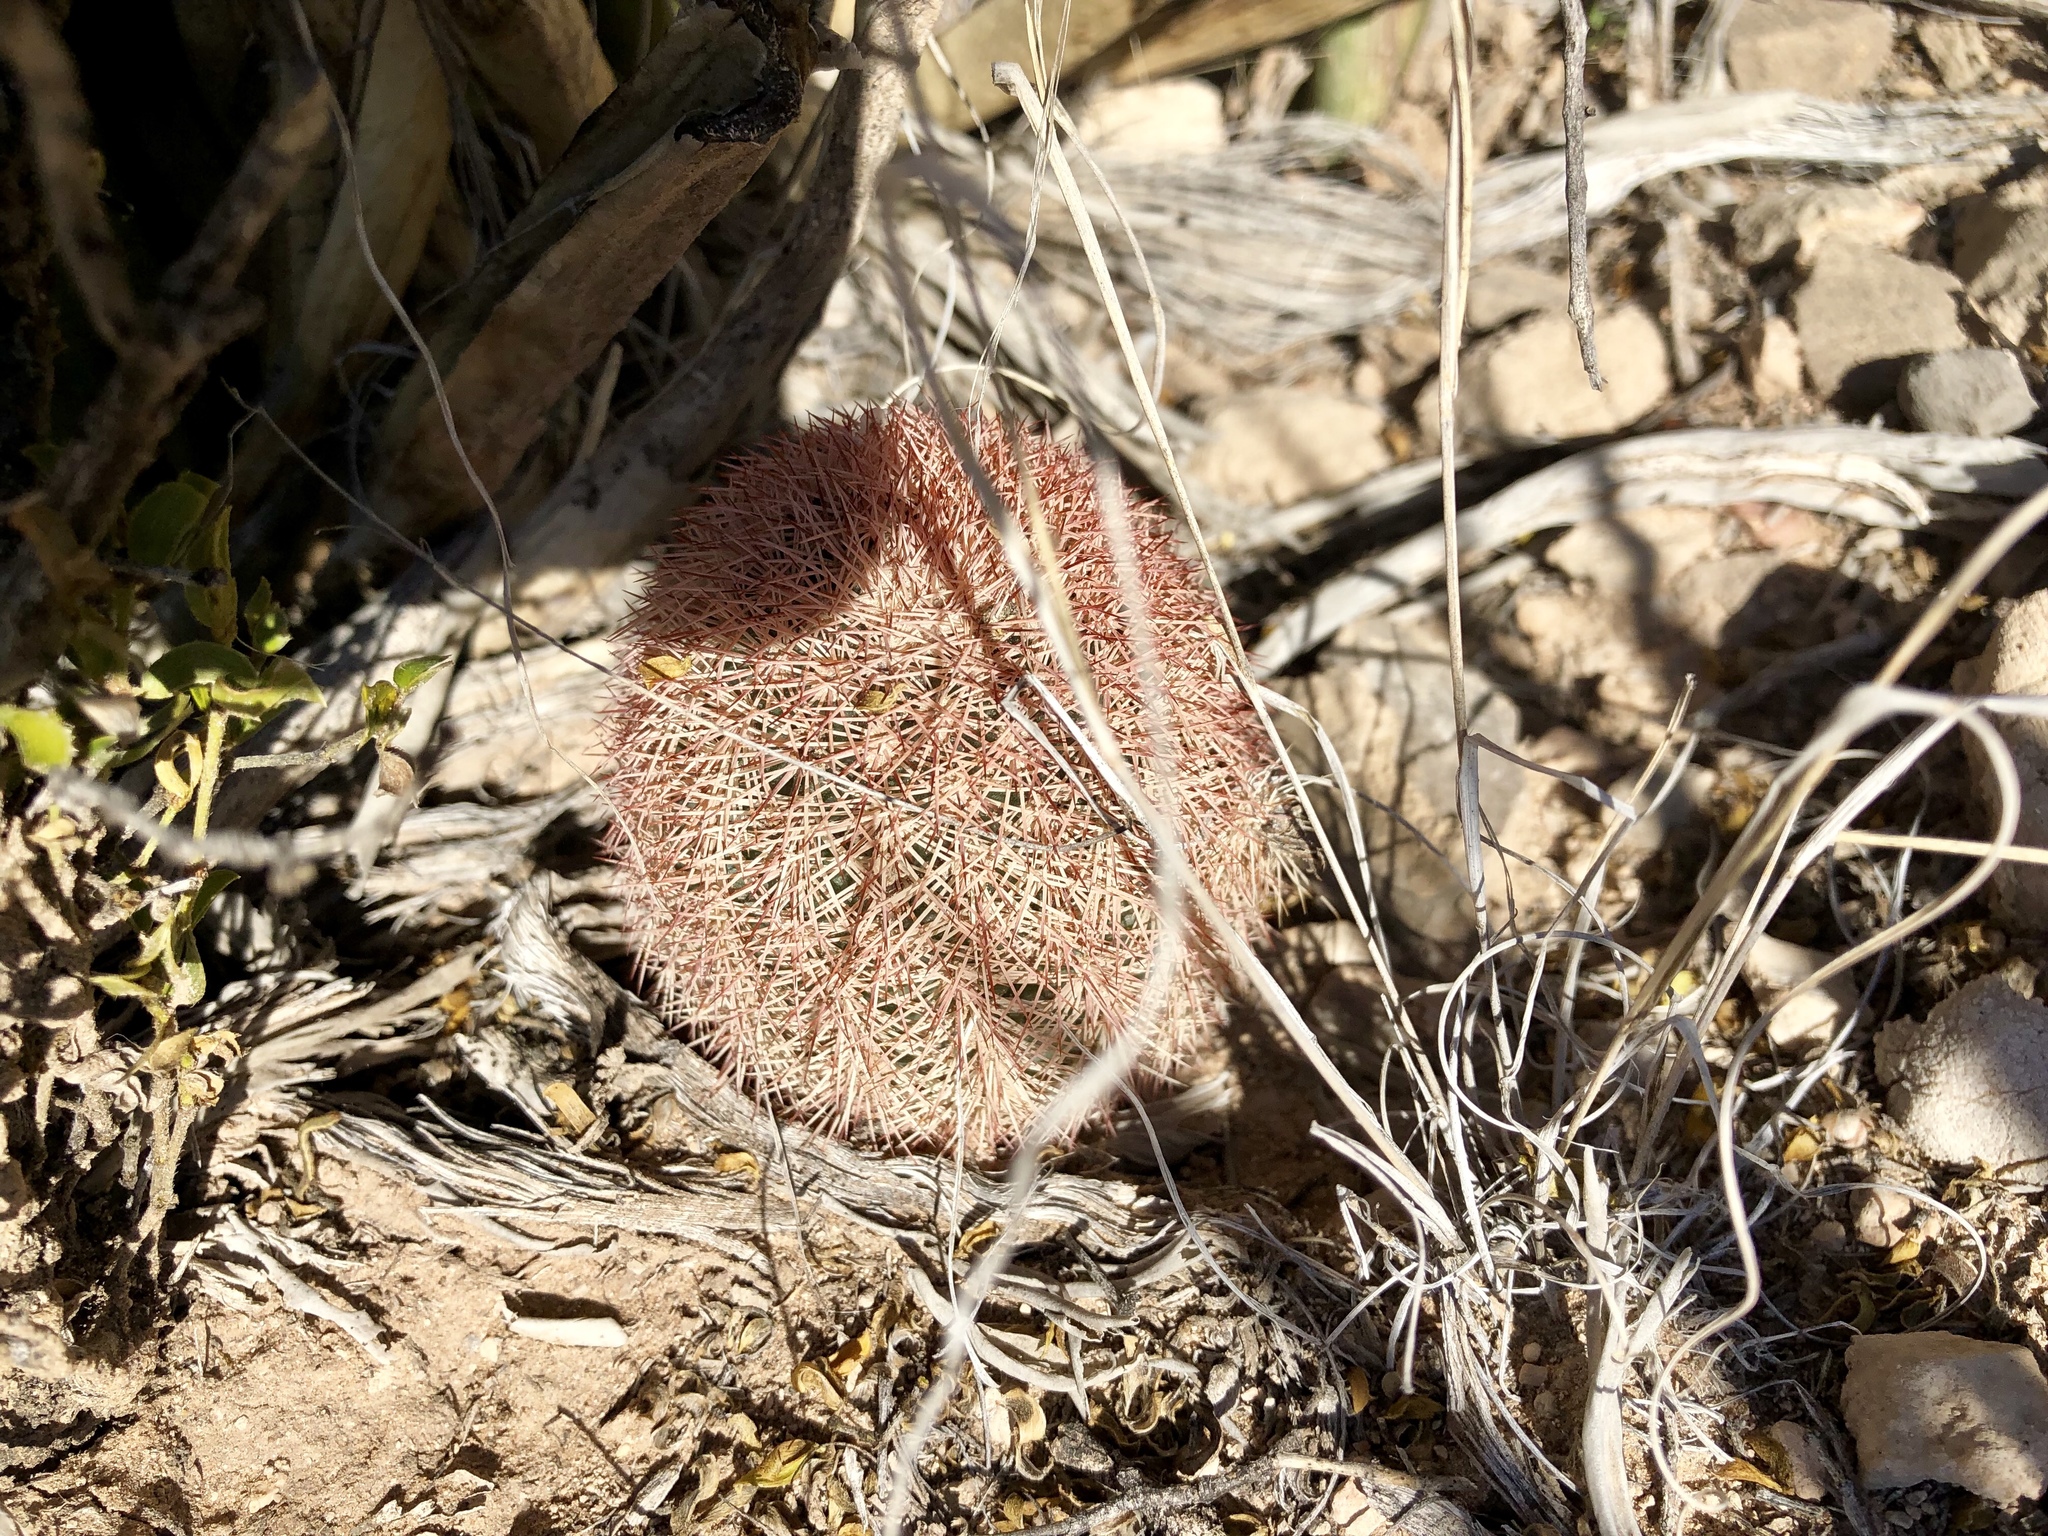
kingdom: Plantae
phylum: Tracheophyta
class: Magnoliopsida
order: Caryophyllales
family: Cactaceae
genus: Echinocereus
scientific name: Echinocereus dasyacanthus
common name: Spiny hedgehog cactus
